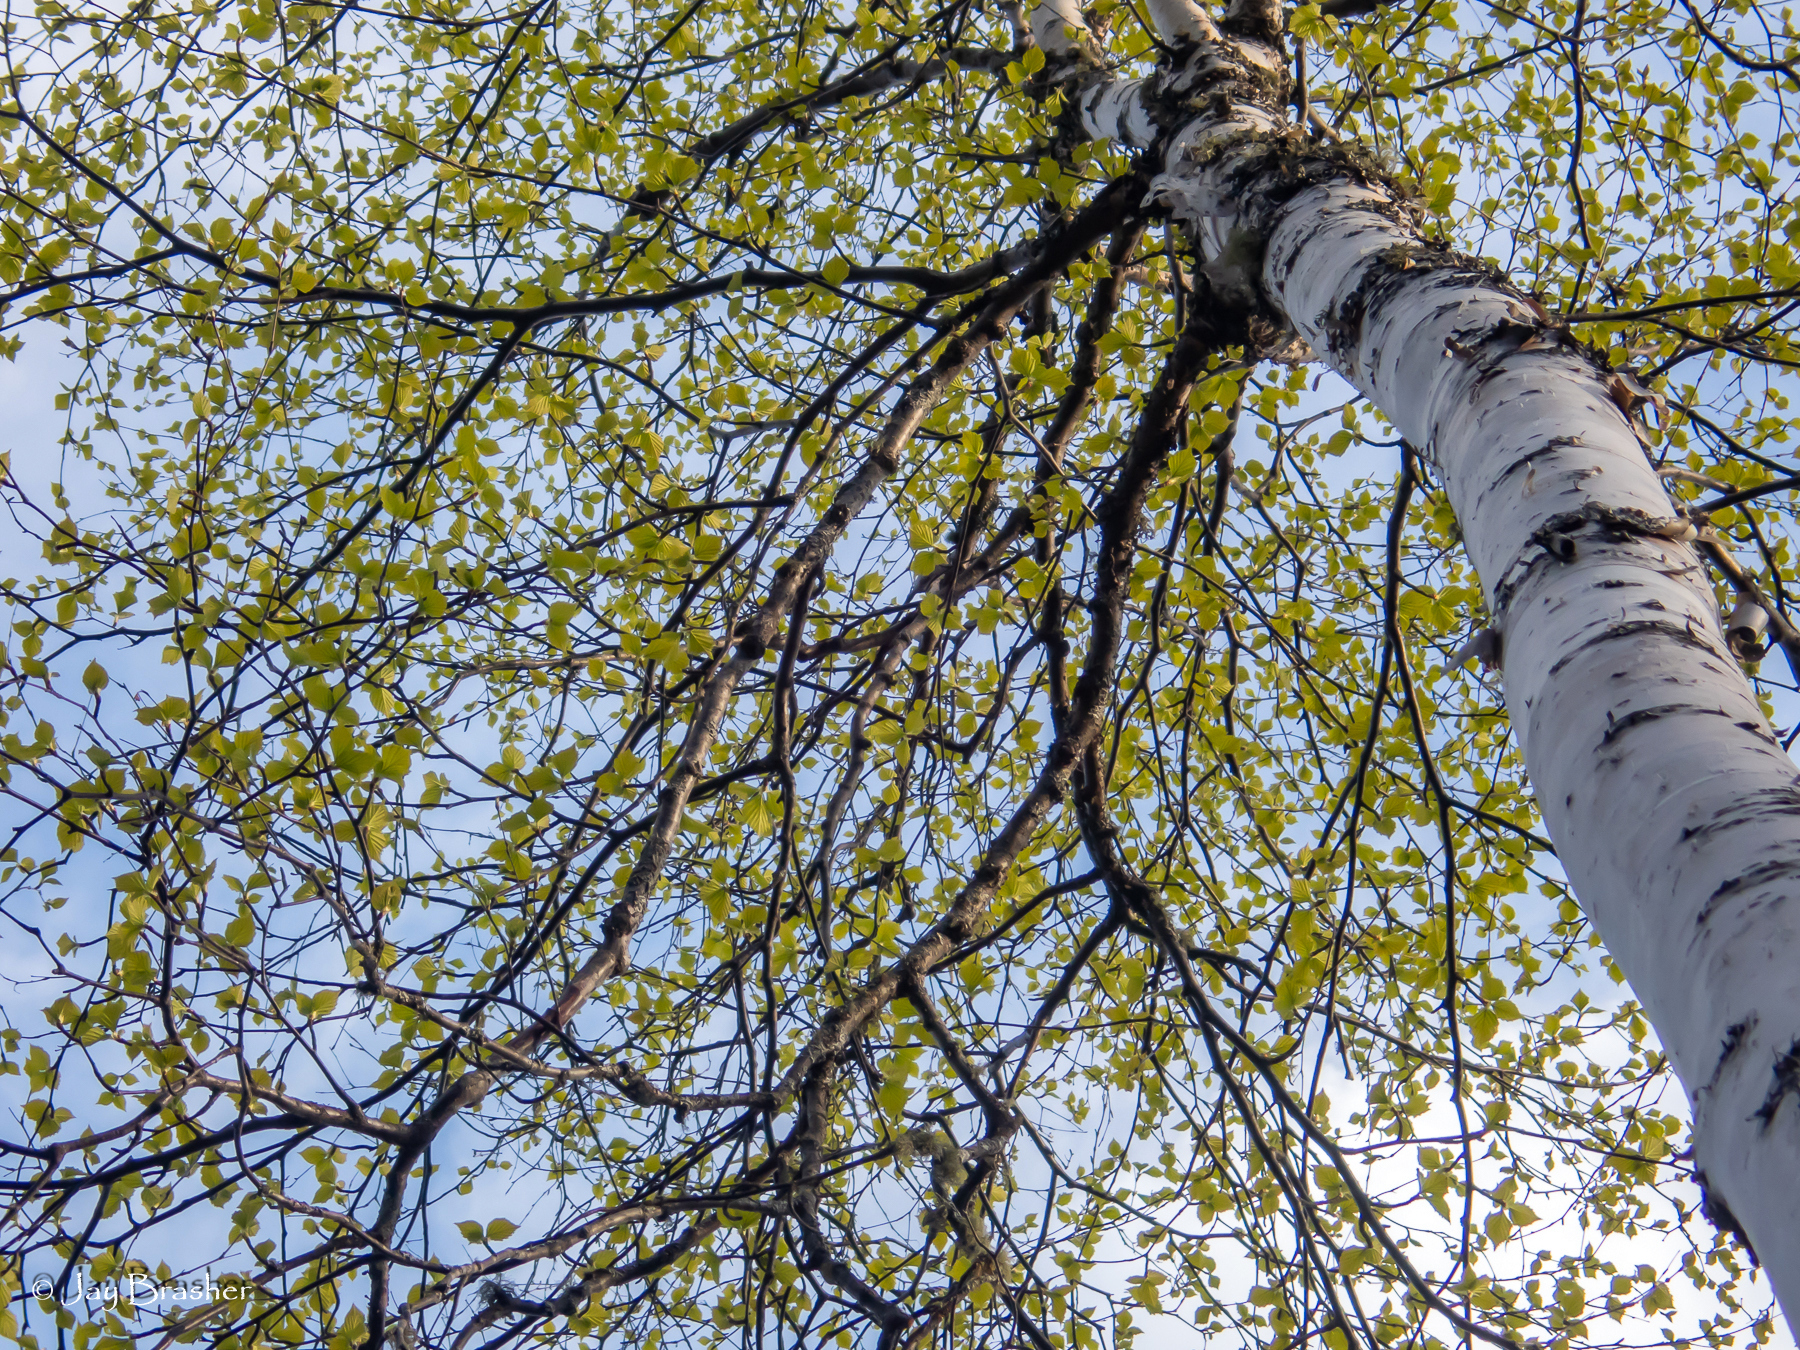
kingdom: Plantae
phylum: Tracheophyta
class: Magnoliopsida
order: Fagales
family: Betulaceae
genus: Betula
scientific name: Betula papyrifera
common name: Paper birch
